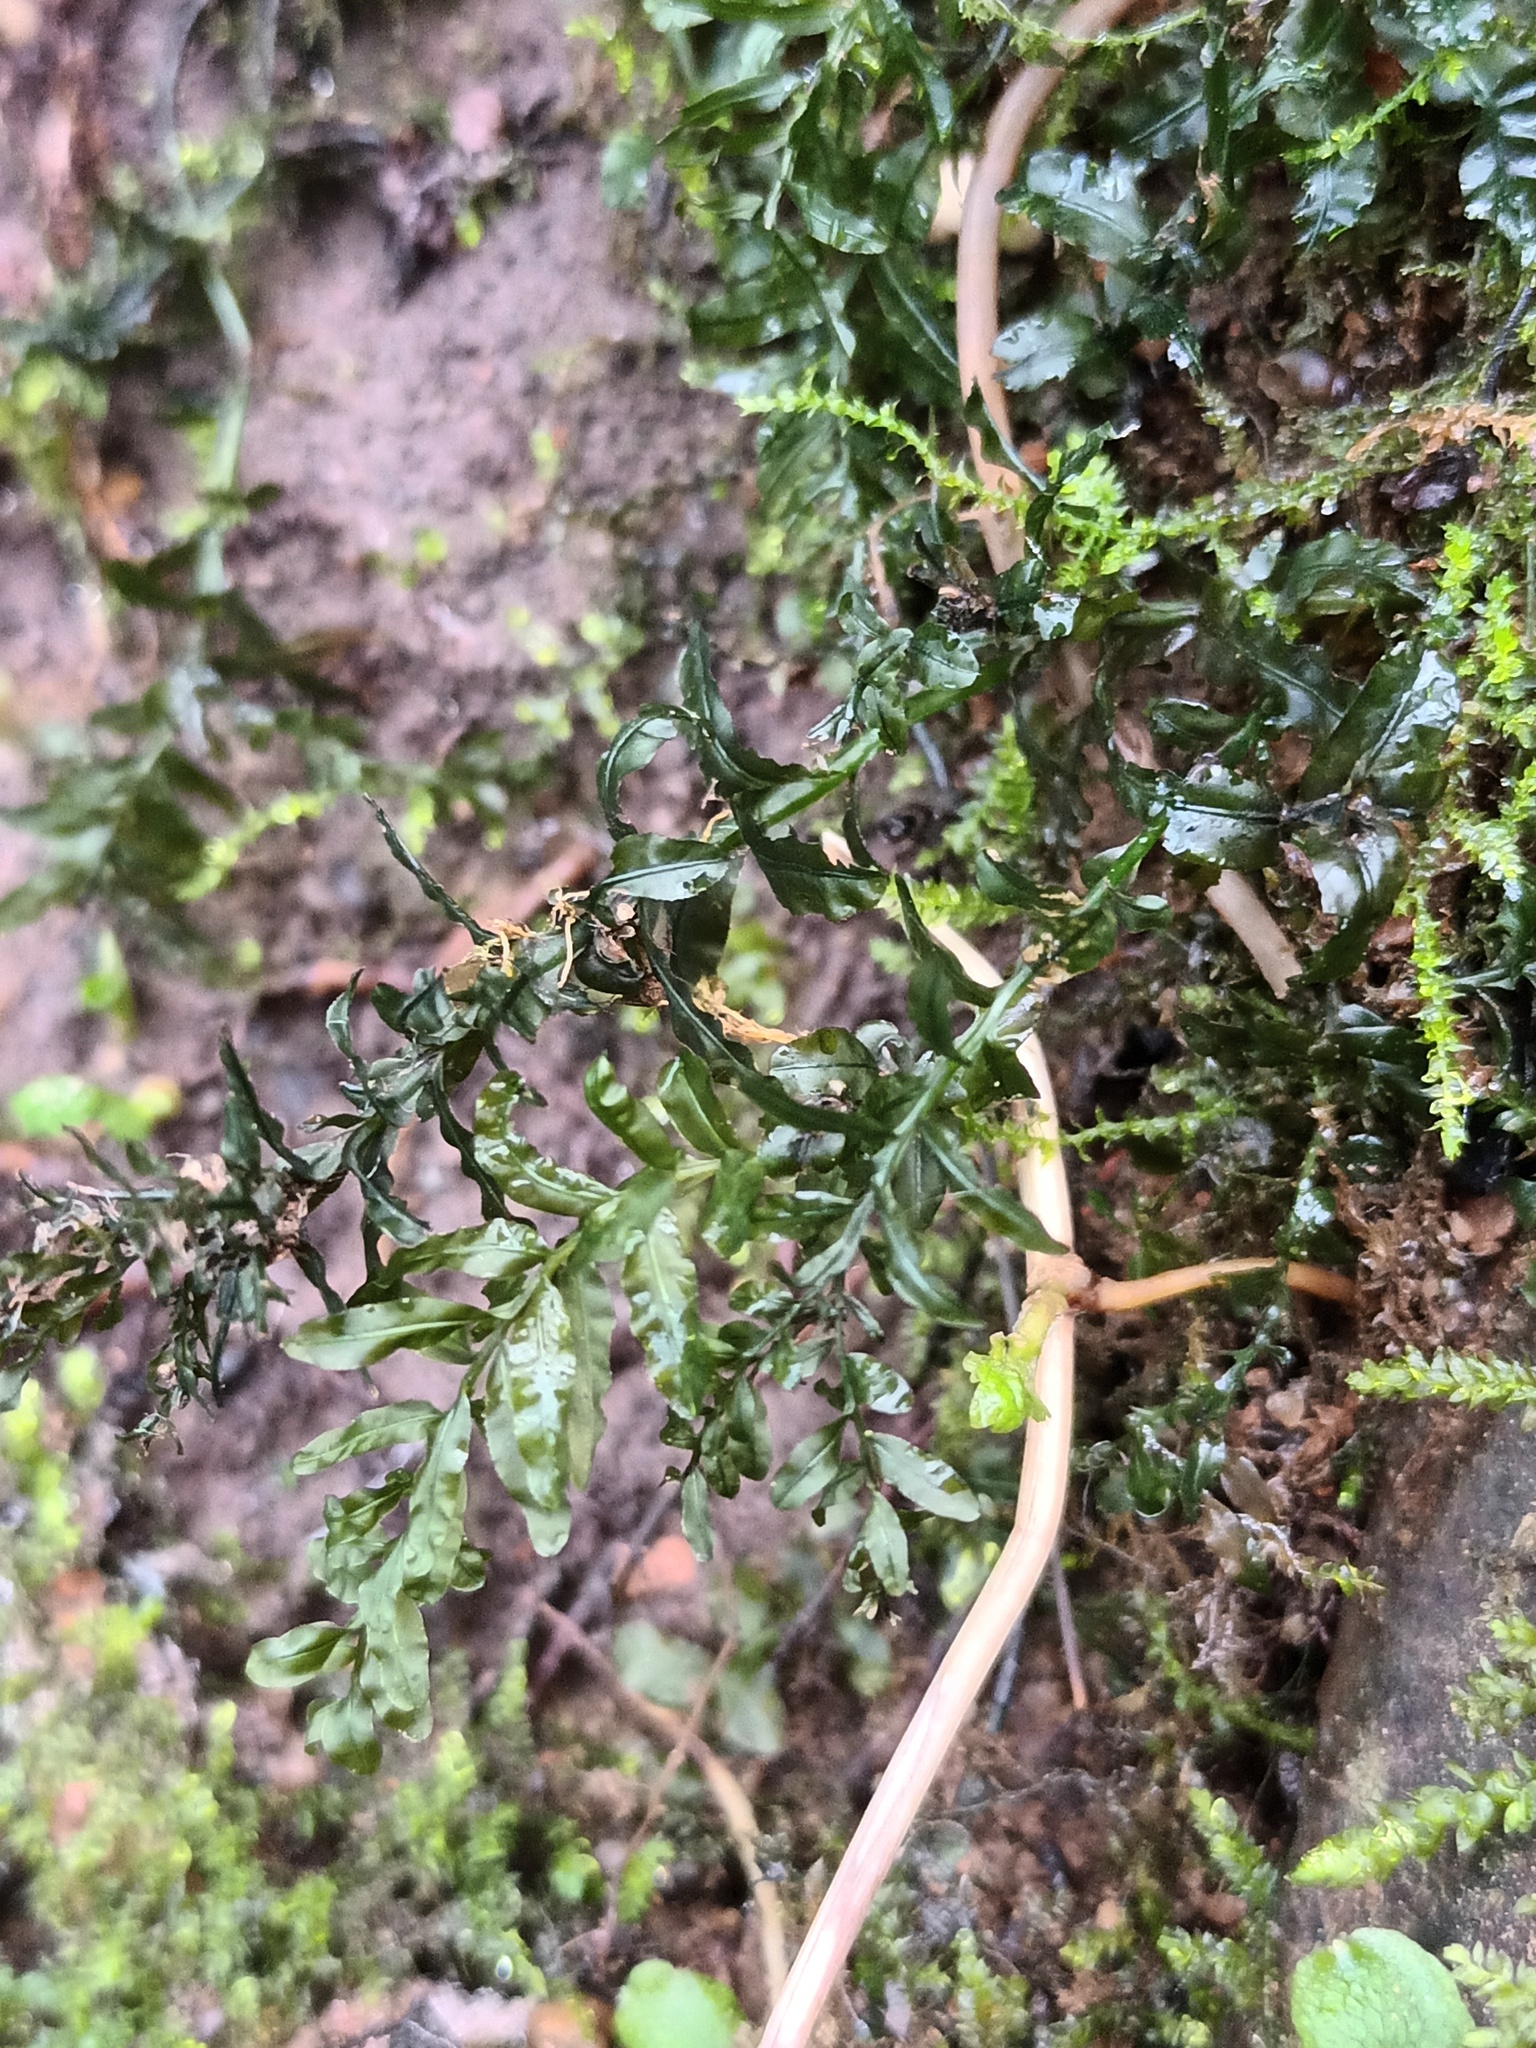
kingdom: Plantae
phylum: Bryophyta
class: Bryopsida
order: Bryales
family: Mniaceae
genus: Plagiomnium
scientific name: Plagiomnium undulatum
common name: Hart's-tongue thyme-moss
